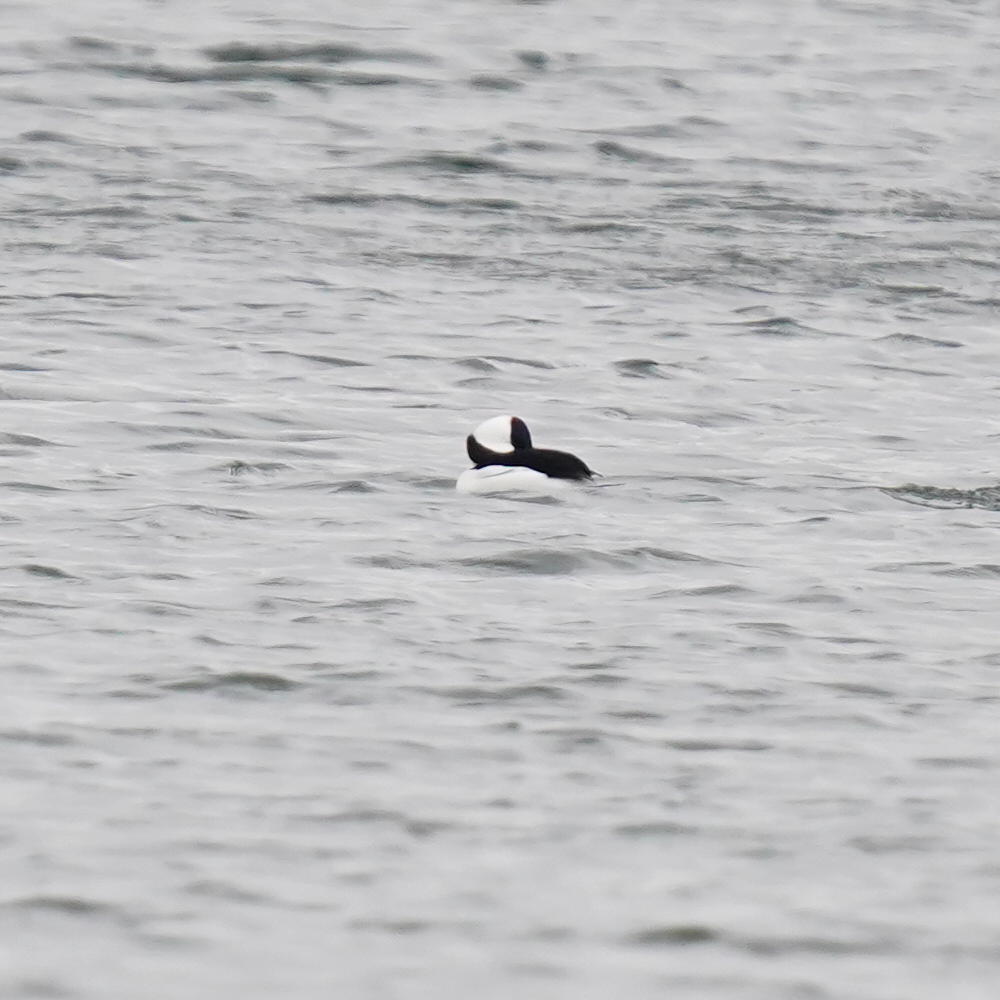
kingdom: Animalia
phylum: Chordata
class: Aves
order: Anseriformes
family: Anatidae
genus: Bucephala
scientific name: Bucephala albeola
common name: Bufflehead
